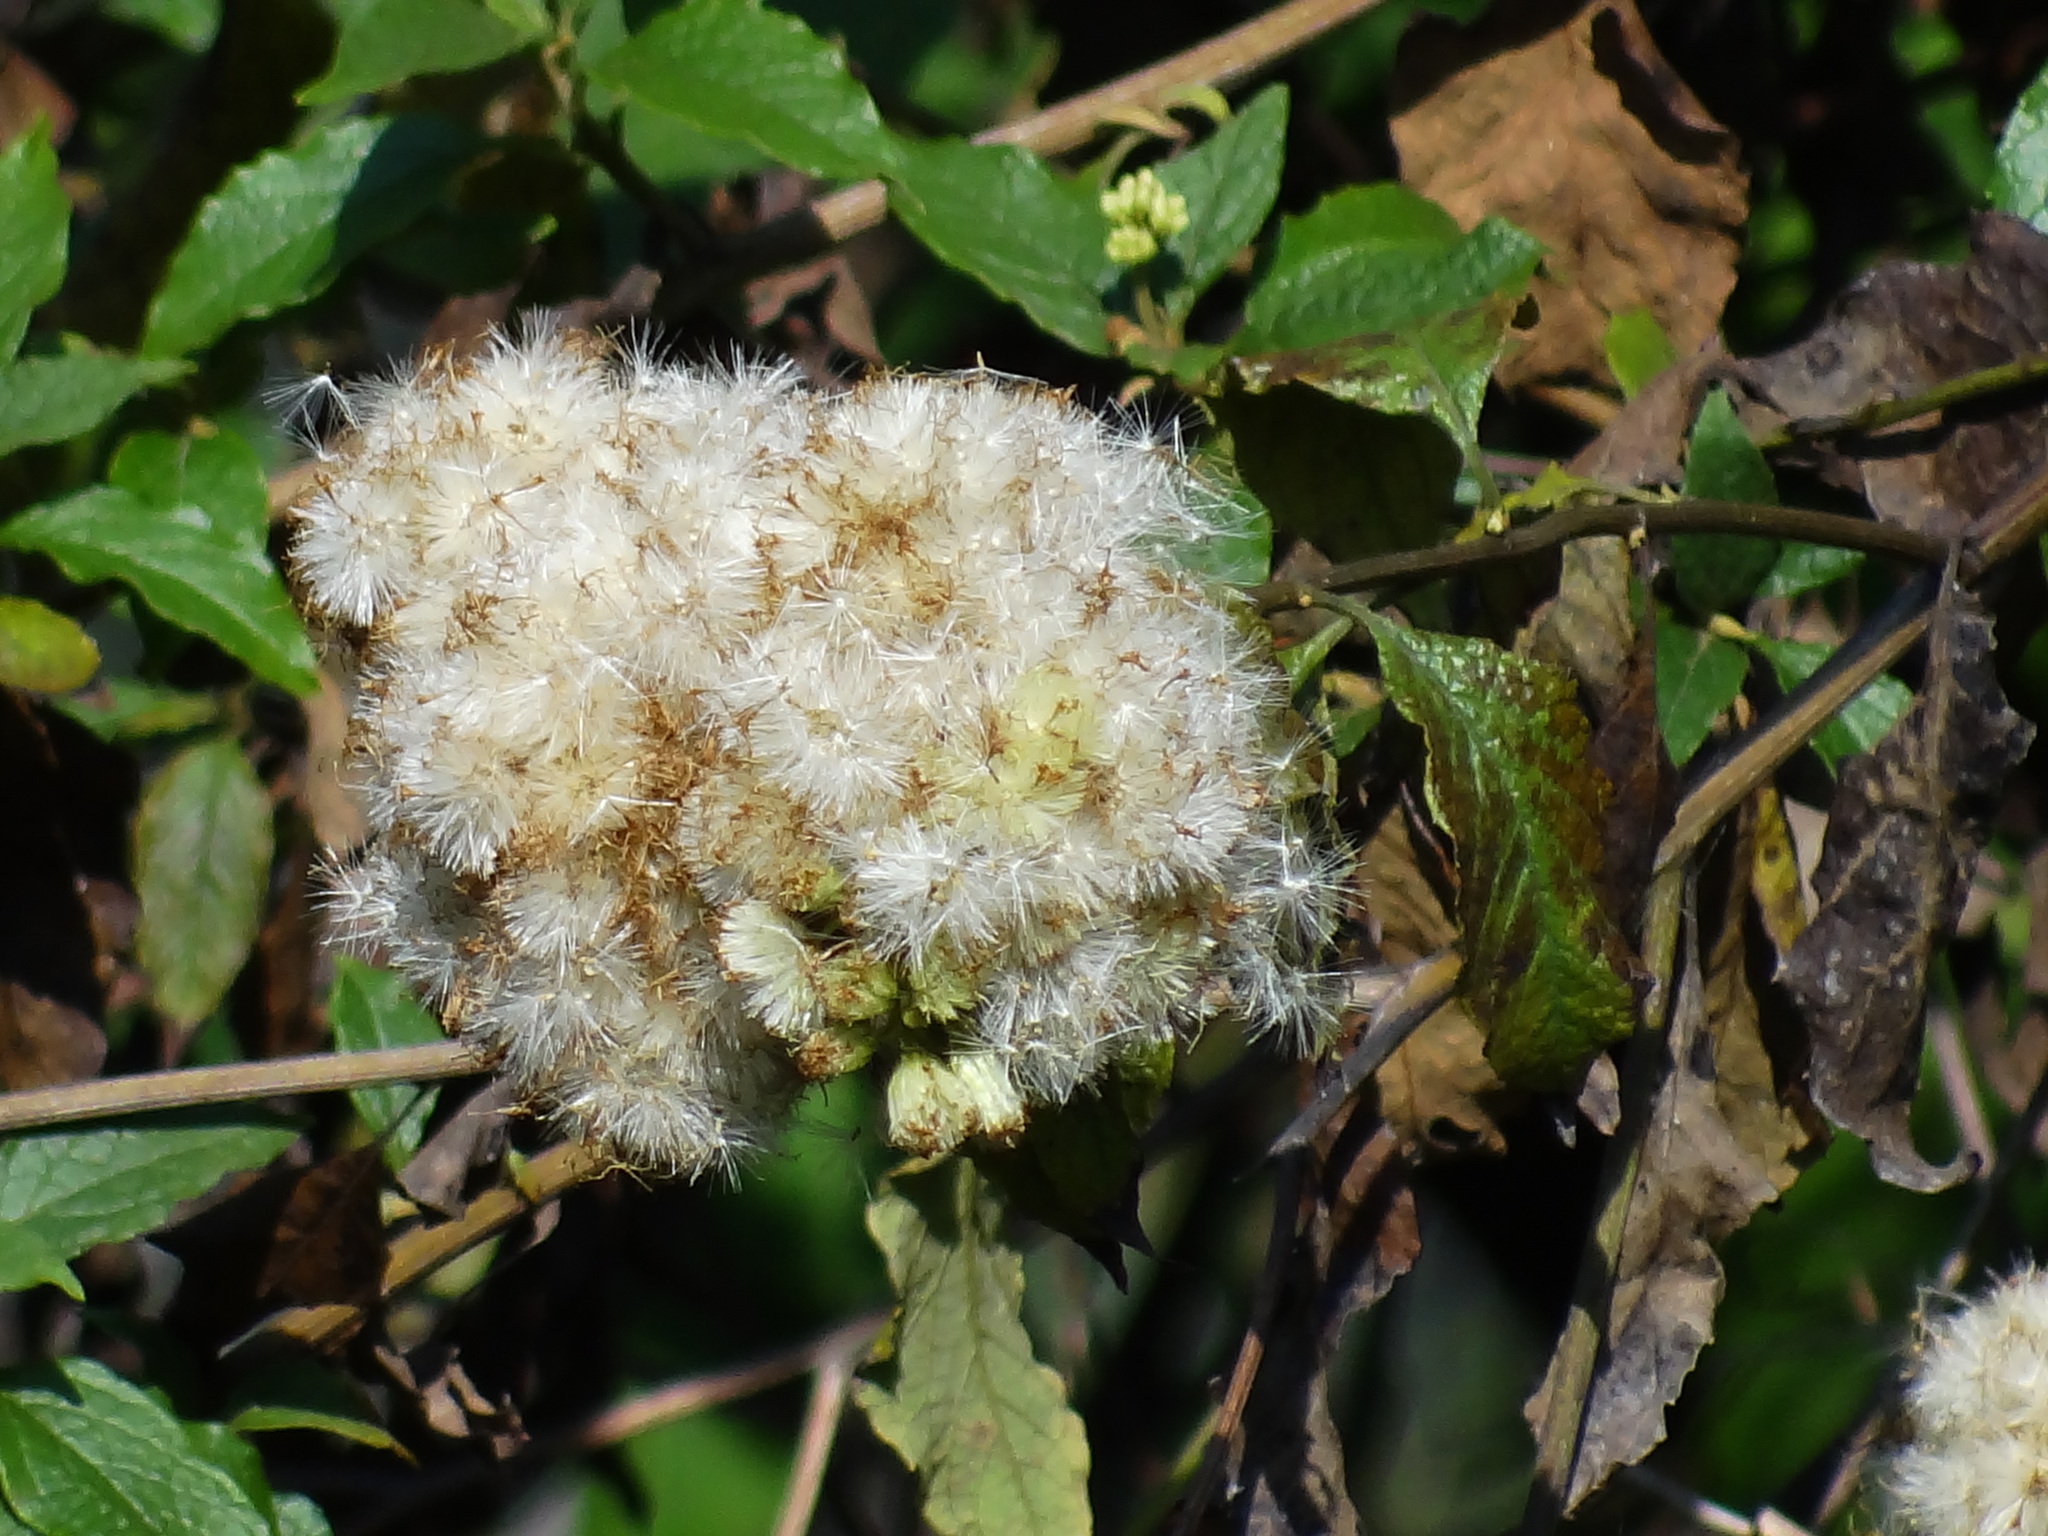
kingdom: Plantae
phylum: Tracheophyta
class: Magnoliopsida
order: Asterales
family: Asteraceae
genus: Microglossa
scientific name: Microglossa pyrifolia
